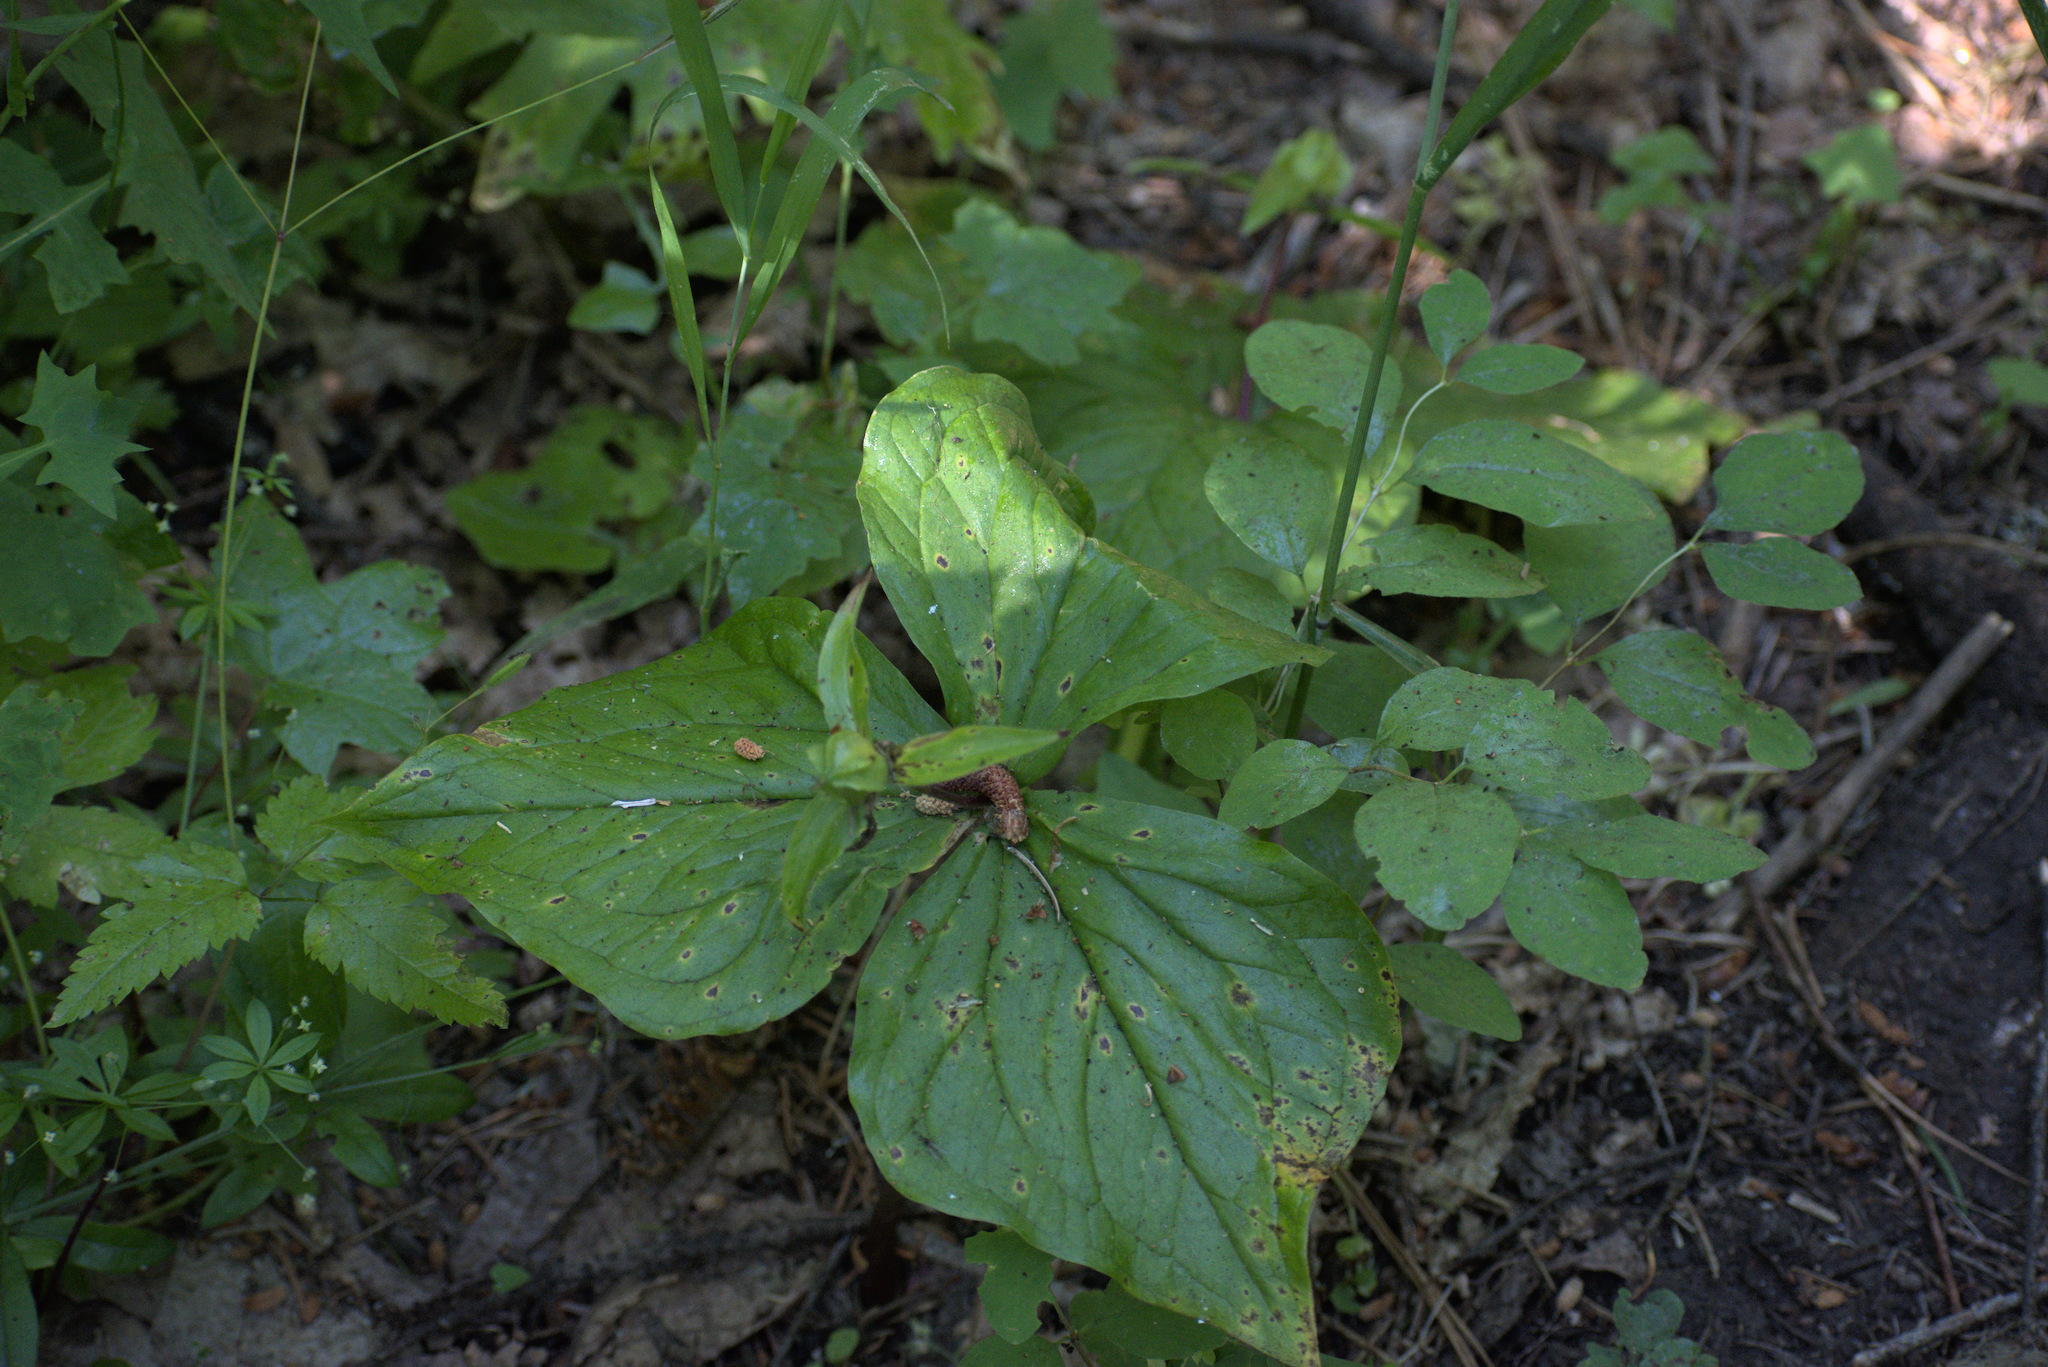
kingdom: Plantae
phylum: Tracheophyta
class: Liliopsida
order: Liliales
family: Melanthiaceae
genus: Trillium
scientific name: Trillium ovatum
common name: Pacific trillium
